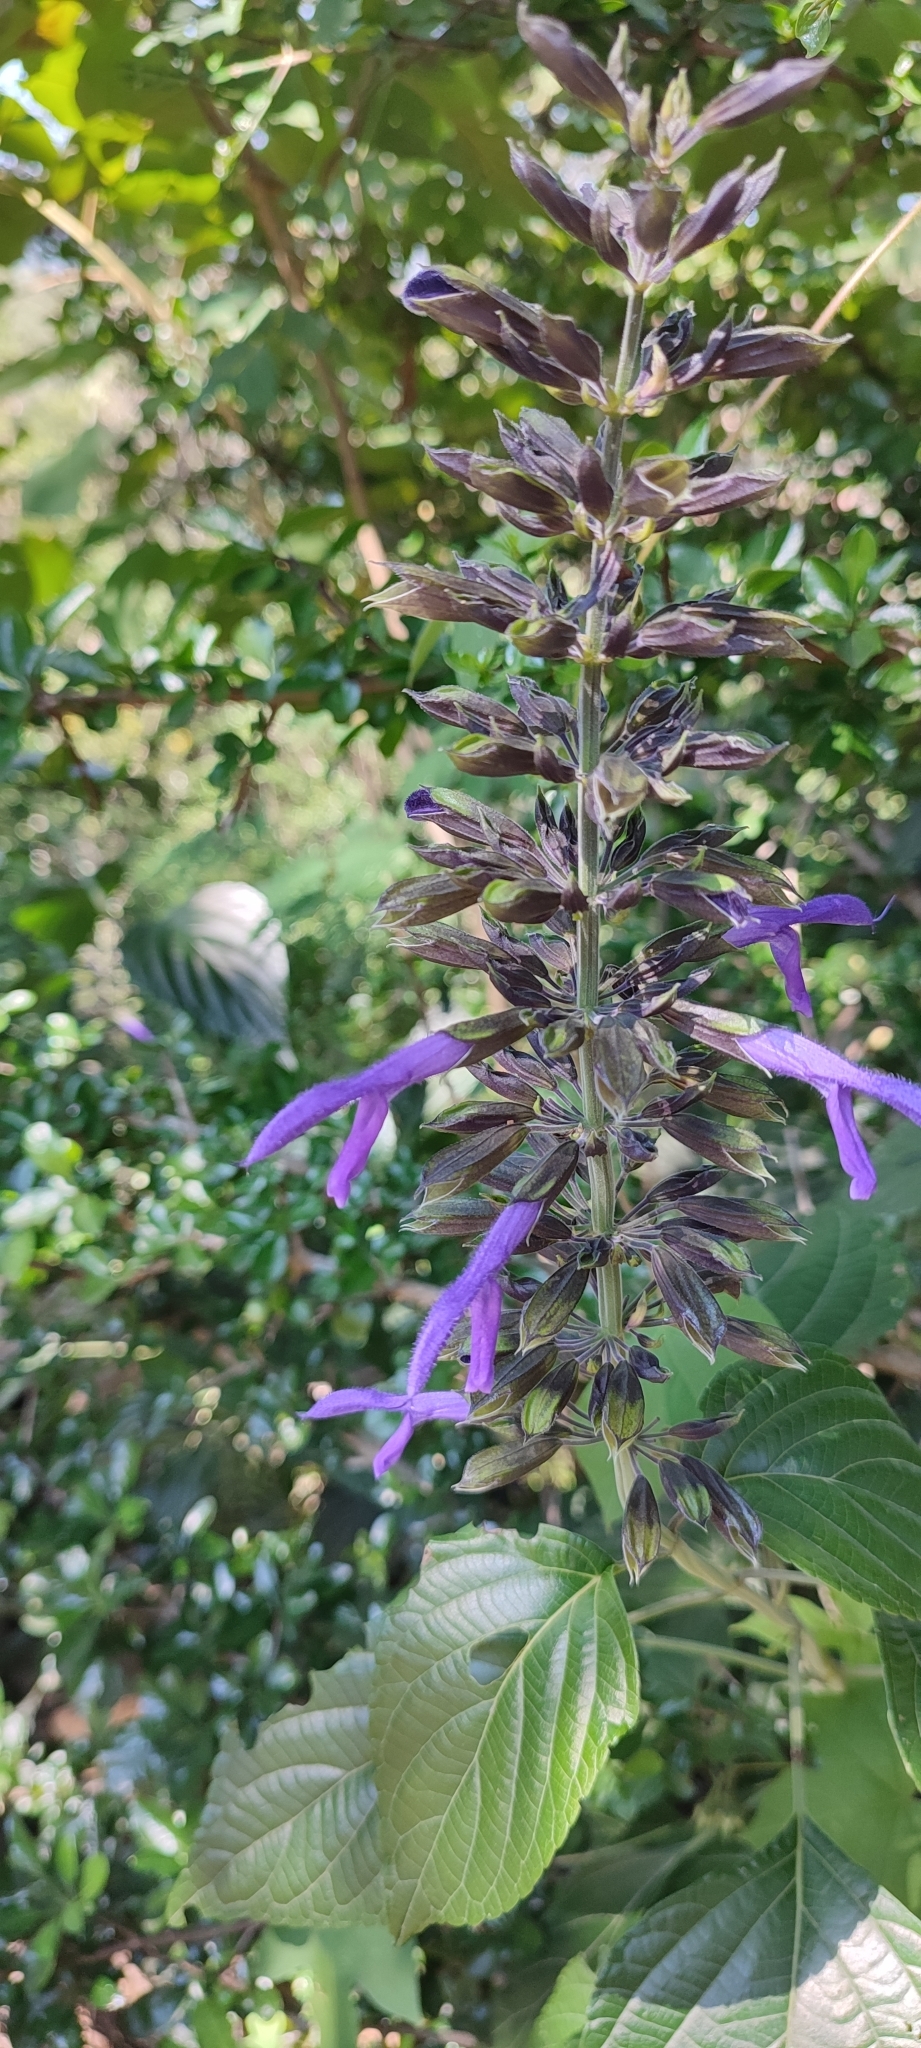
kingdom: Plantae
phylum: Tracheophyta
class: Magnoliopsida
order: Lamiales
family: Lamiaceae
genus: Salvia
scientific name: Salvia mexicana
